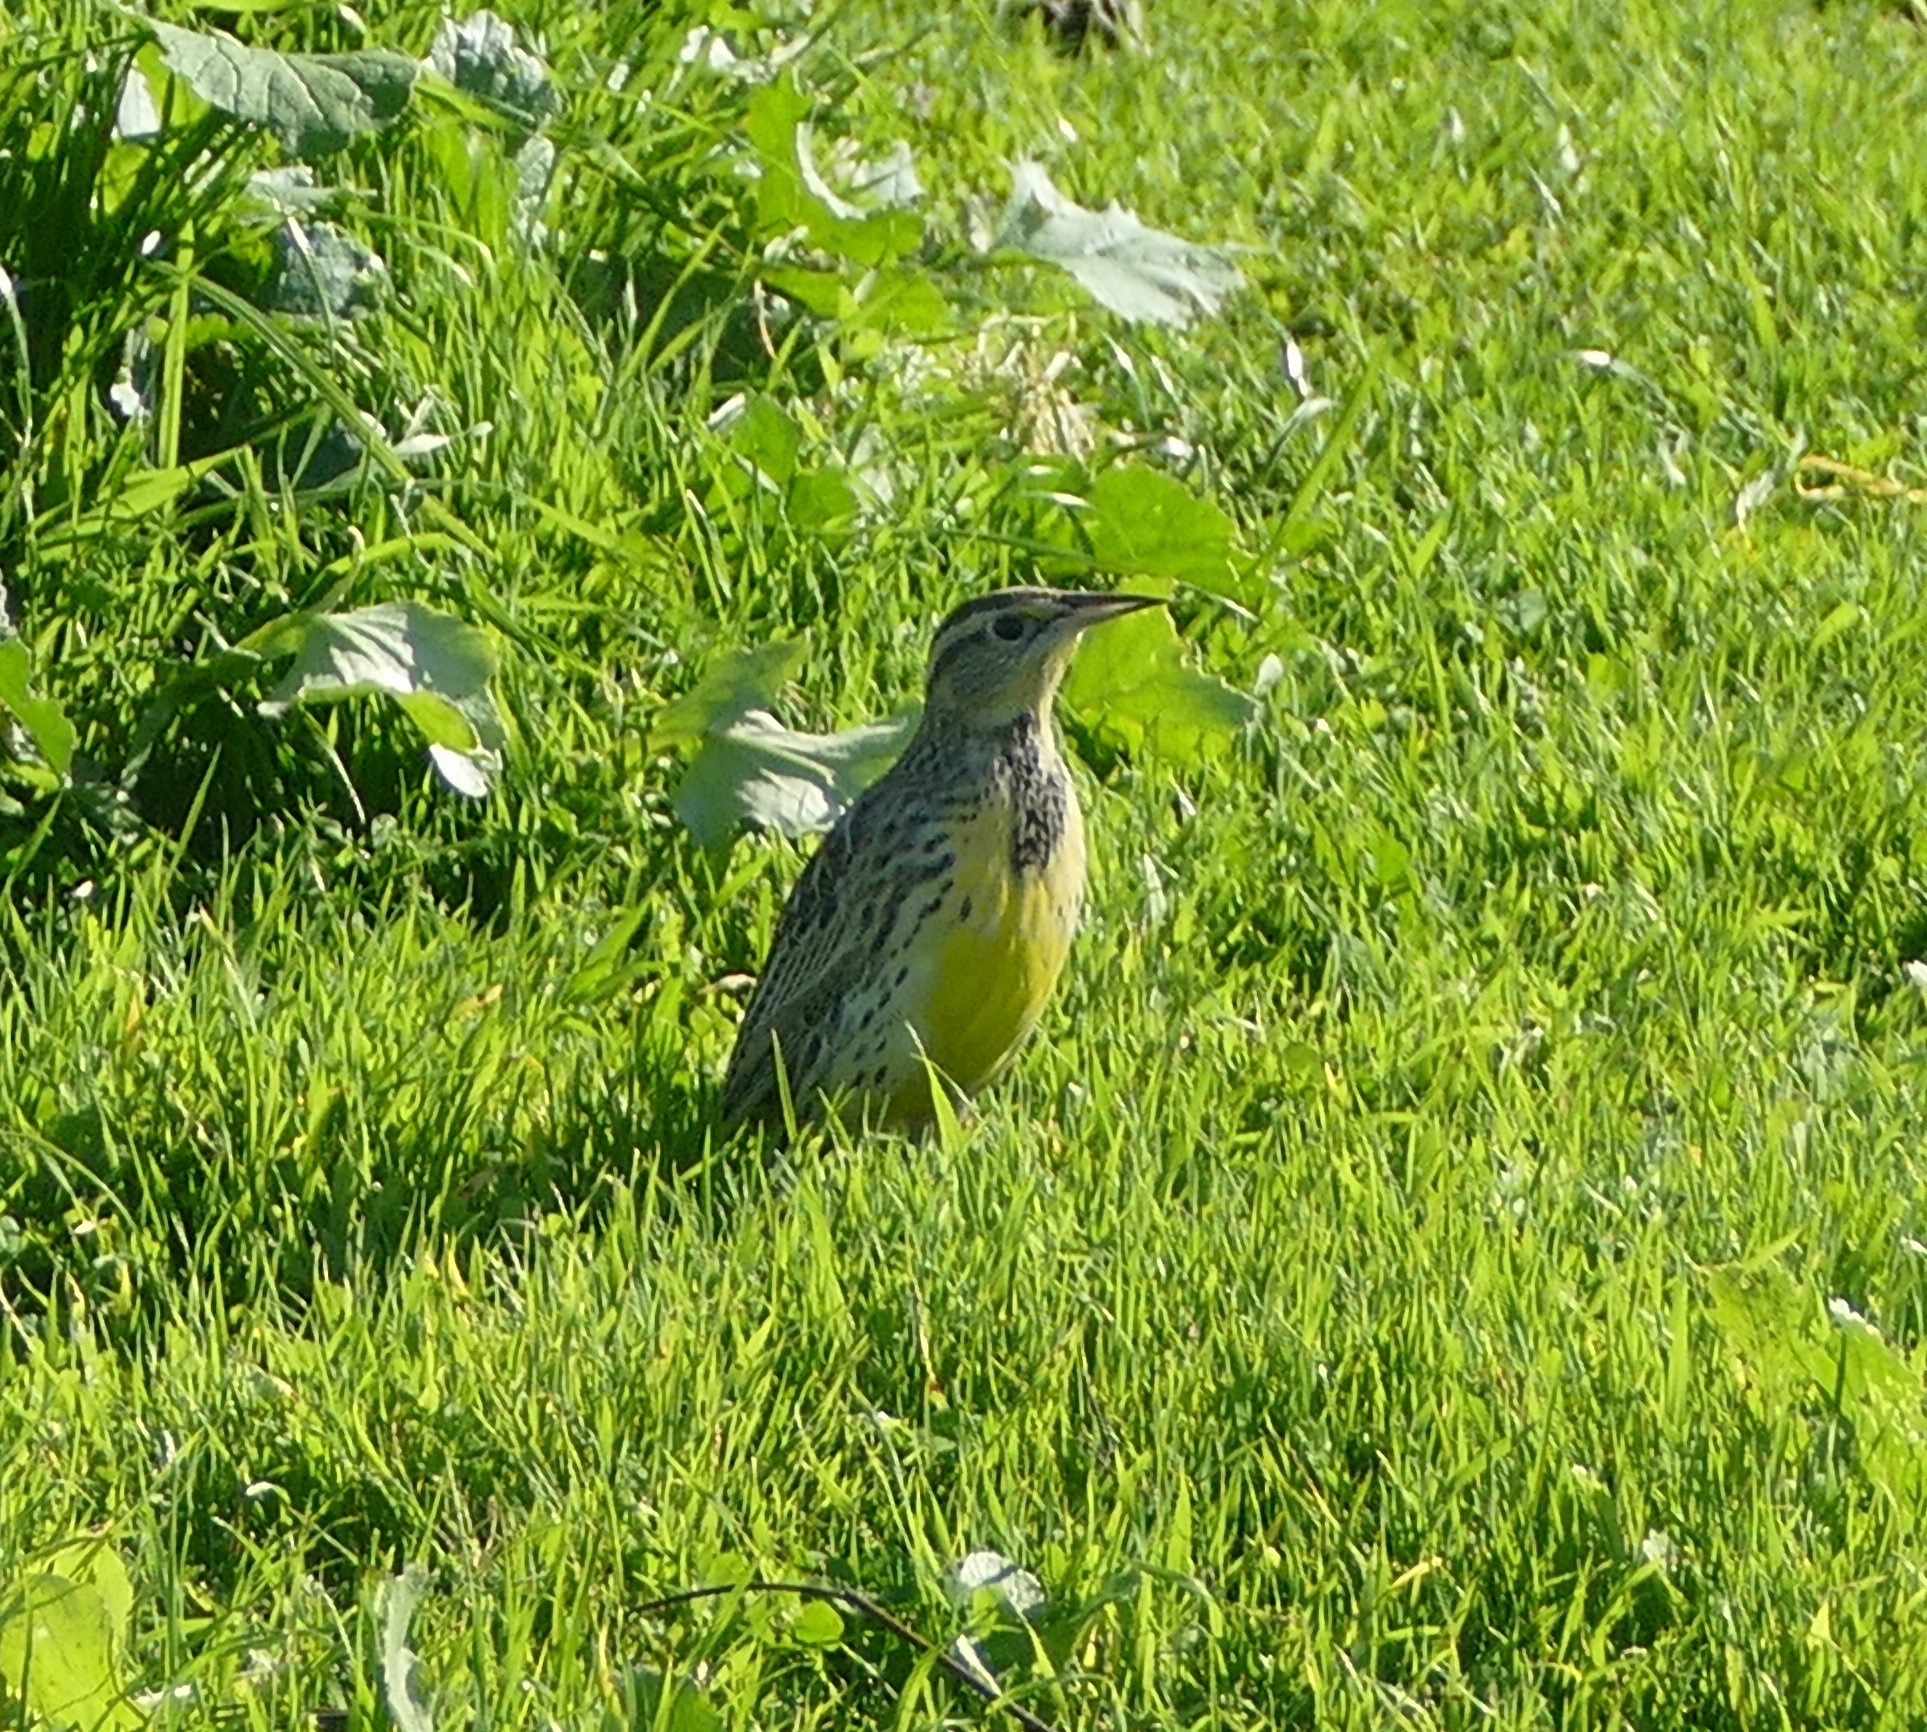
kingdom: Animalia
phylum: Chordata
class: Aves
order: Passeriformes
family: Icteridae
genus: Sturnella
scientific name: Sturnella neglecta
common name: Western meadowlark
